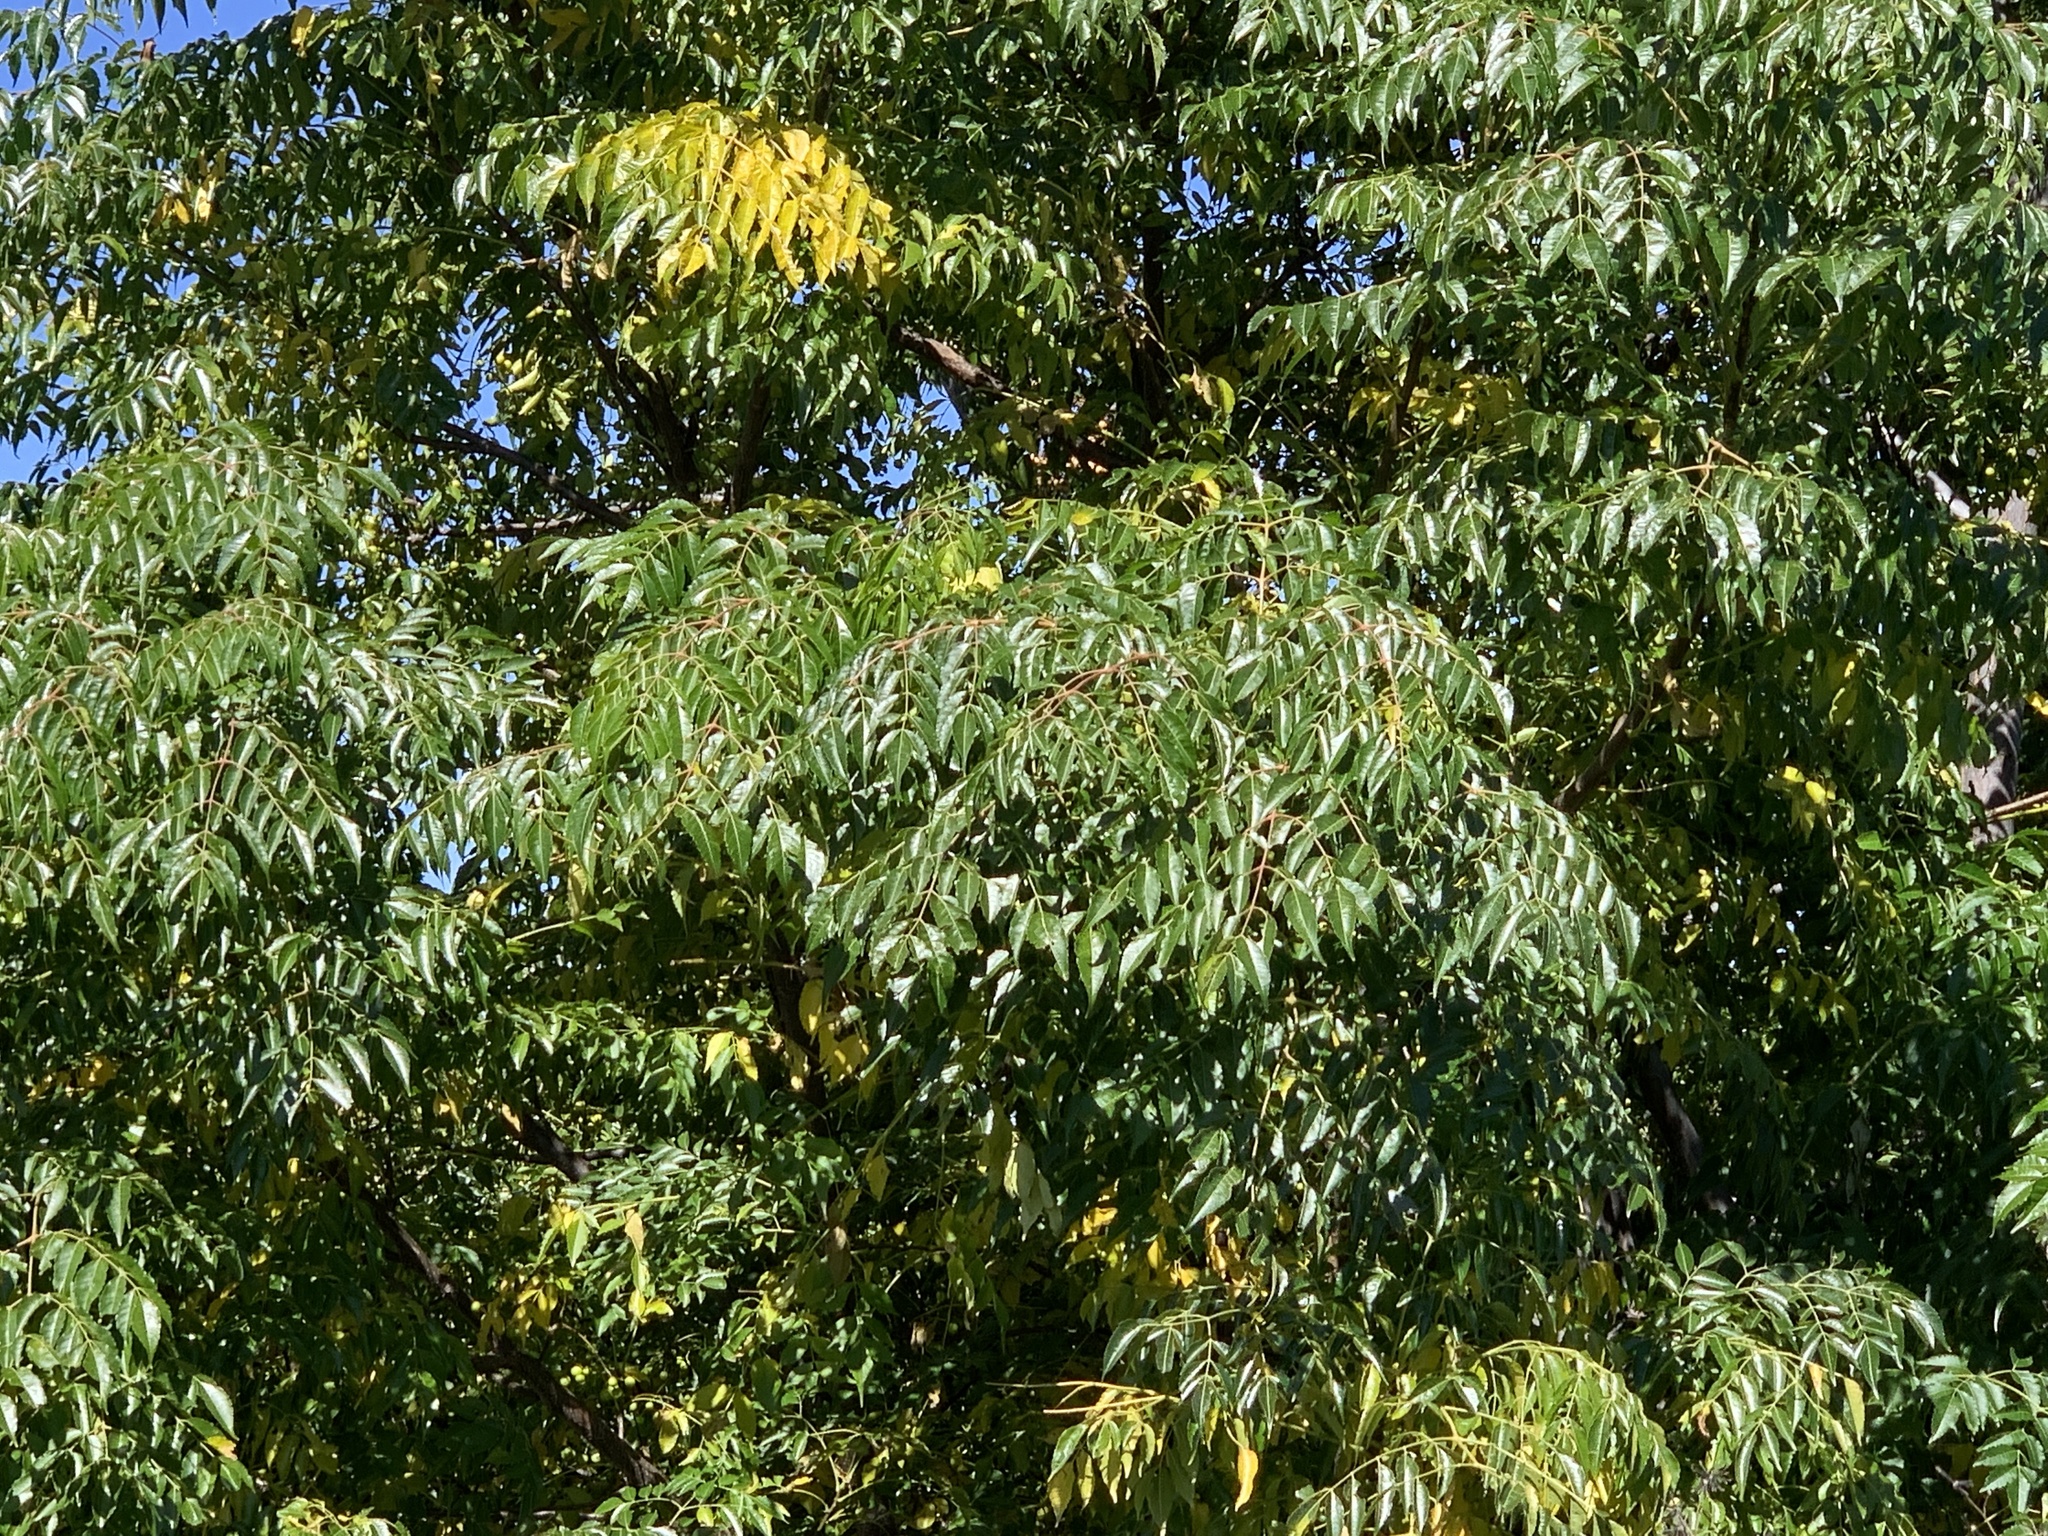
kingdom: Plantae
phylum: Tracheophyta
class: Magnoliopsida
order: Sapindales
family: Meliaceae
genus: Melia
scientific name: Melia azedarach
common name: Chinaberrytree
